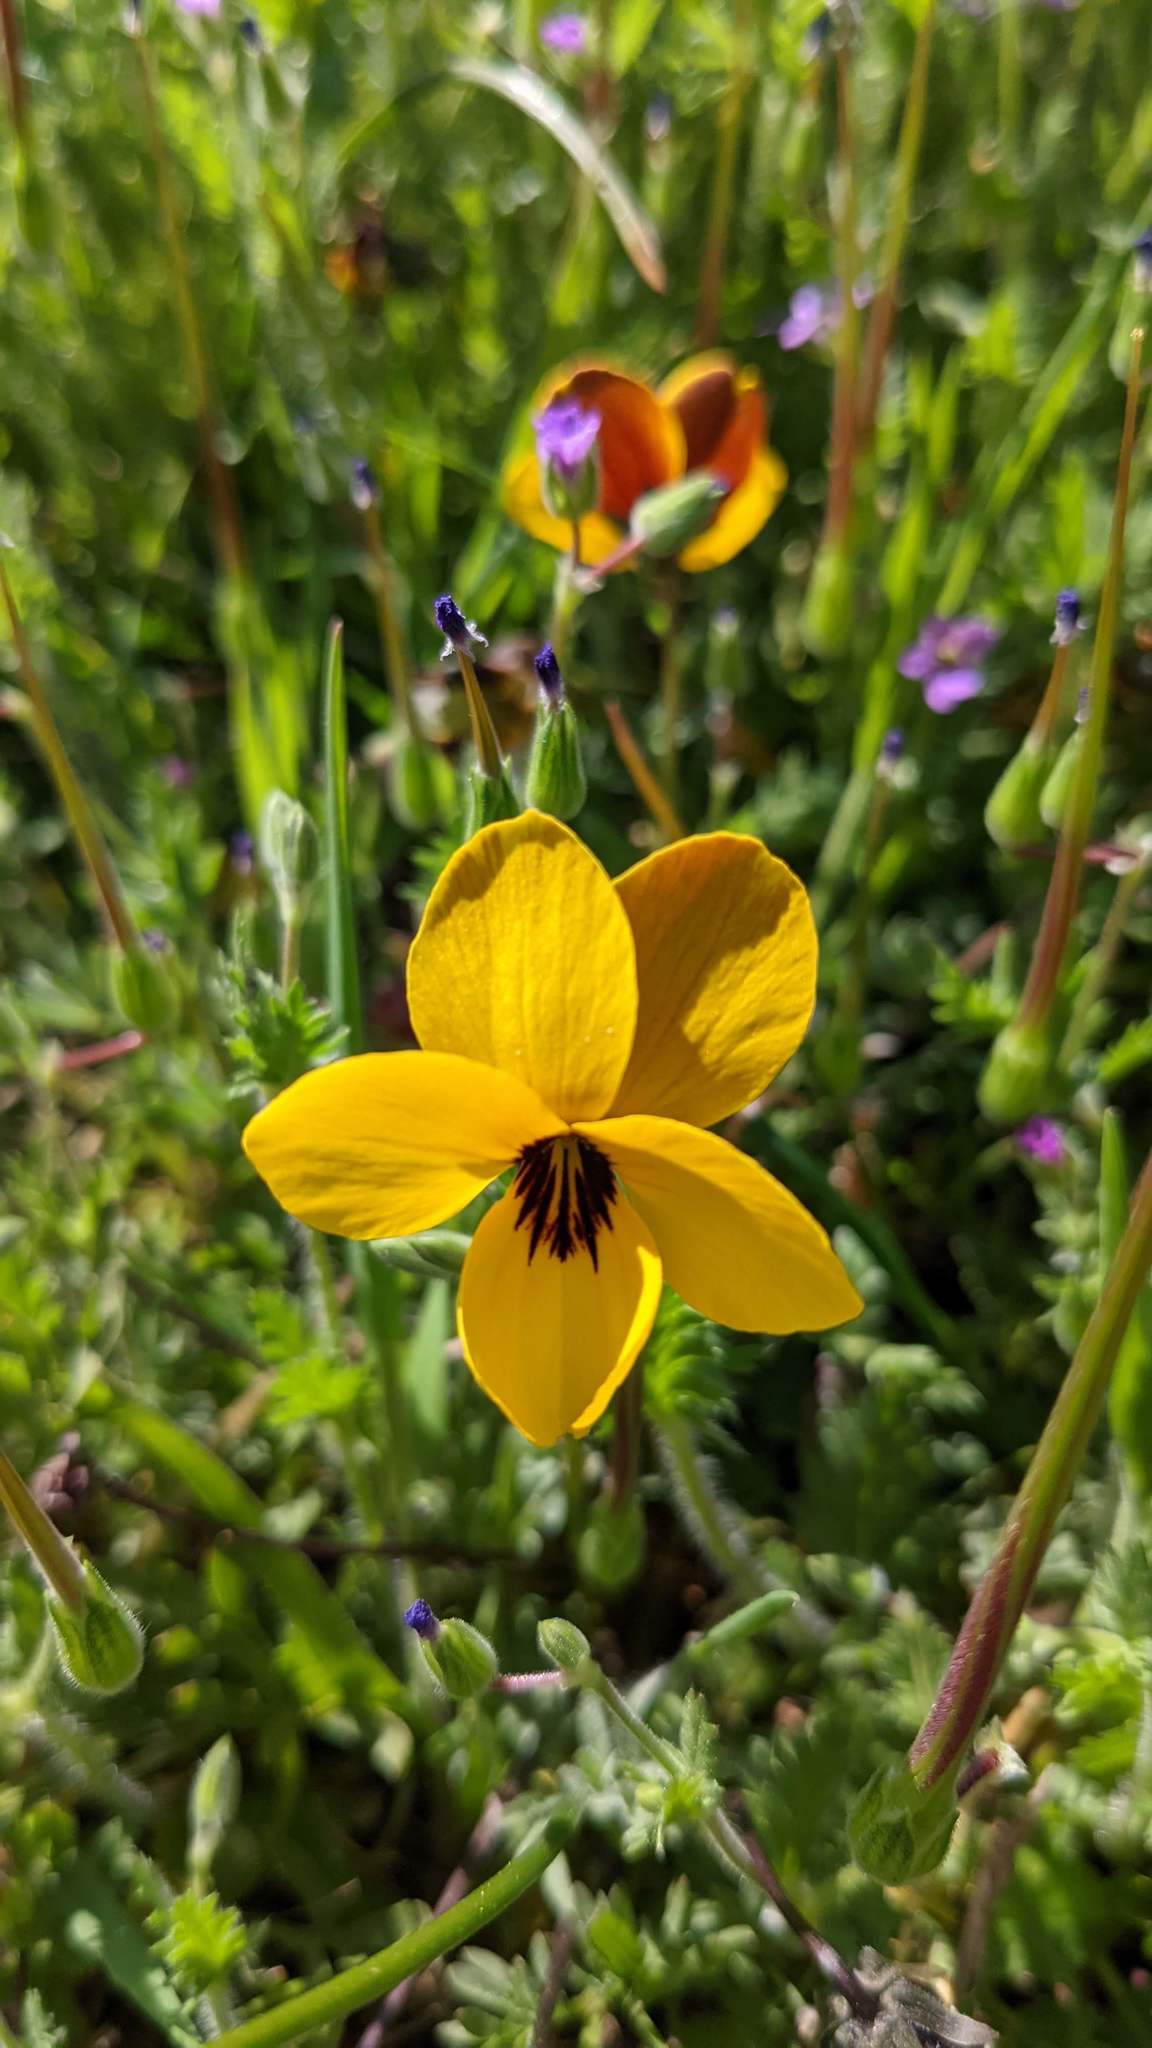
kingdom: Plantae
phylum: Tracheophyta
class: Magnoliopsida
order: Malpighiales
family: Violaceae
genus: Viola
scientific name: Viola douglasii
